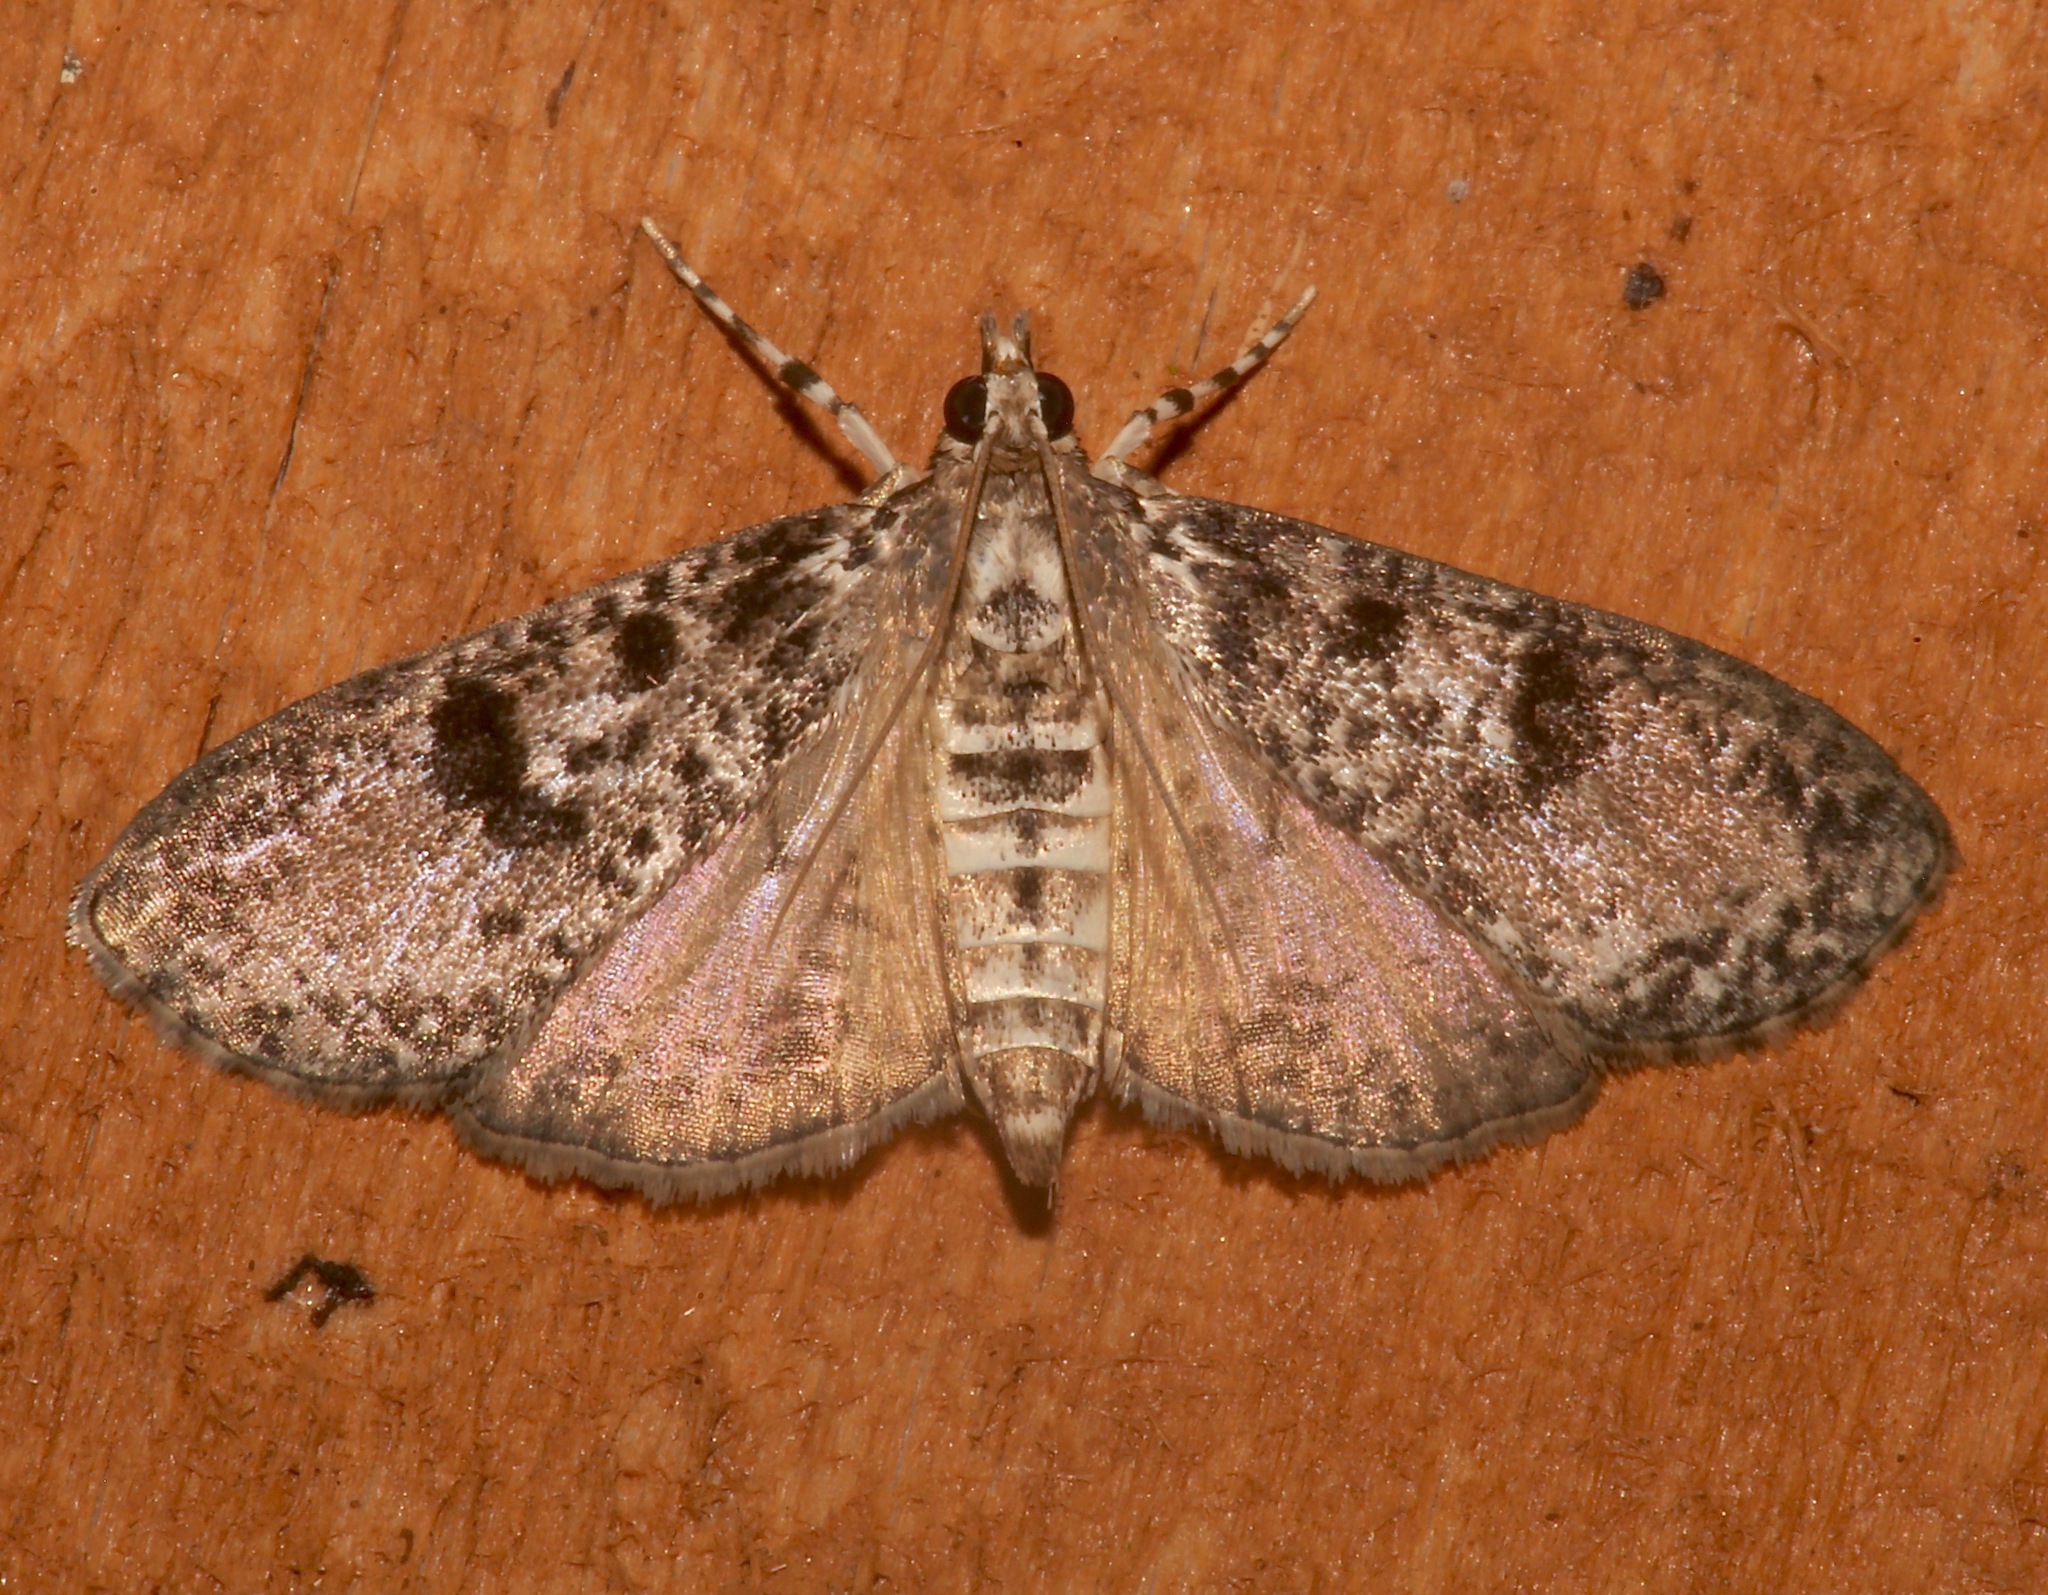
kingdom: Animalia
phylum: Arthropoda
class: Insecta
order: Lepidoptera
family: Crambidae
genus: Palpita
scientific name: Palpita magniferalis
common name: Splendid palpita moth
